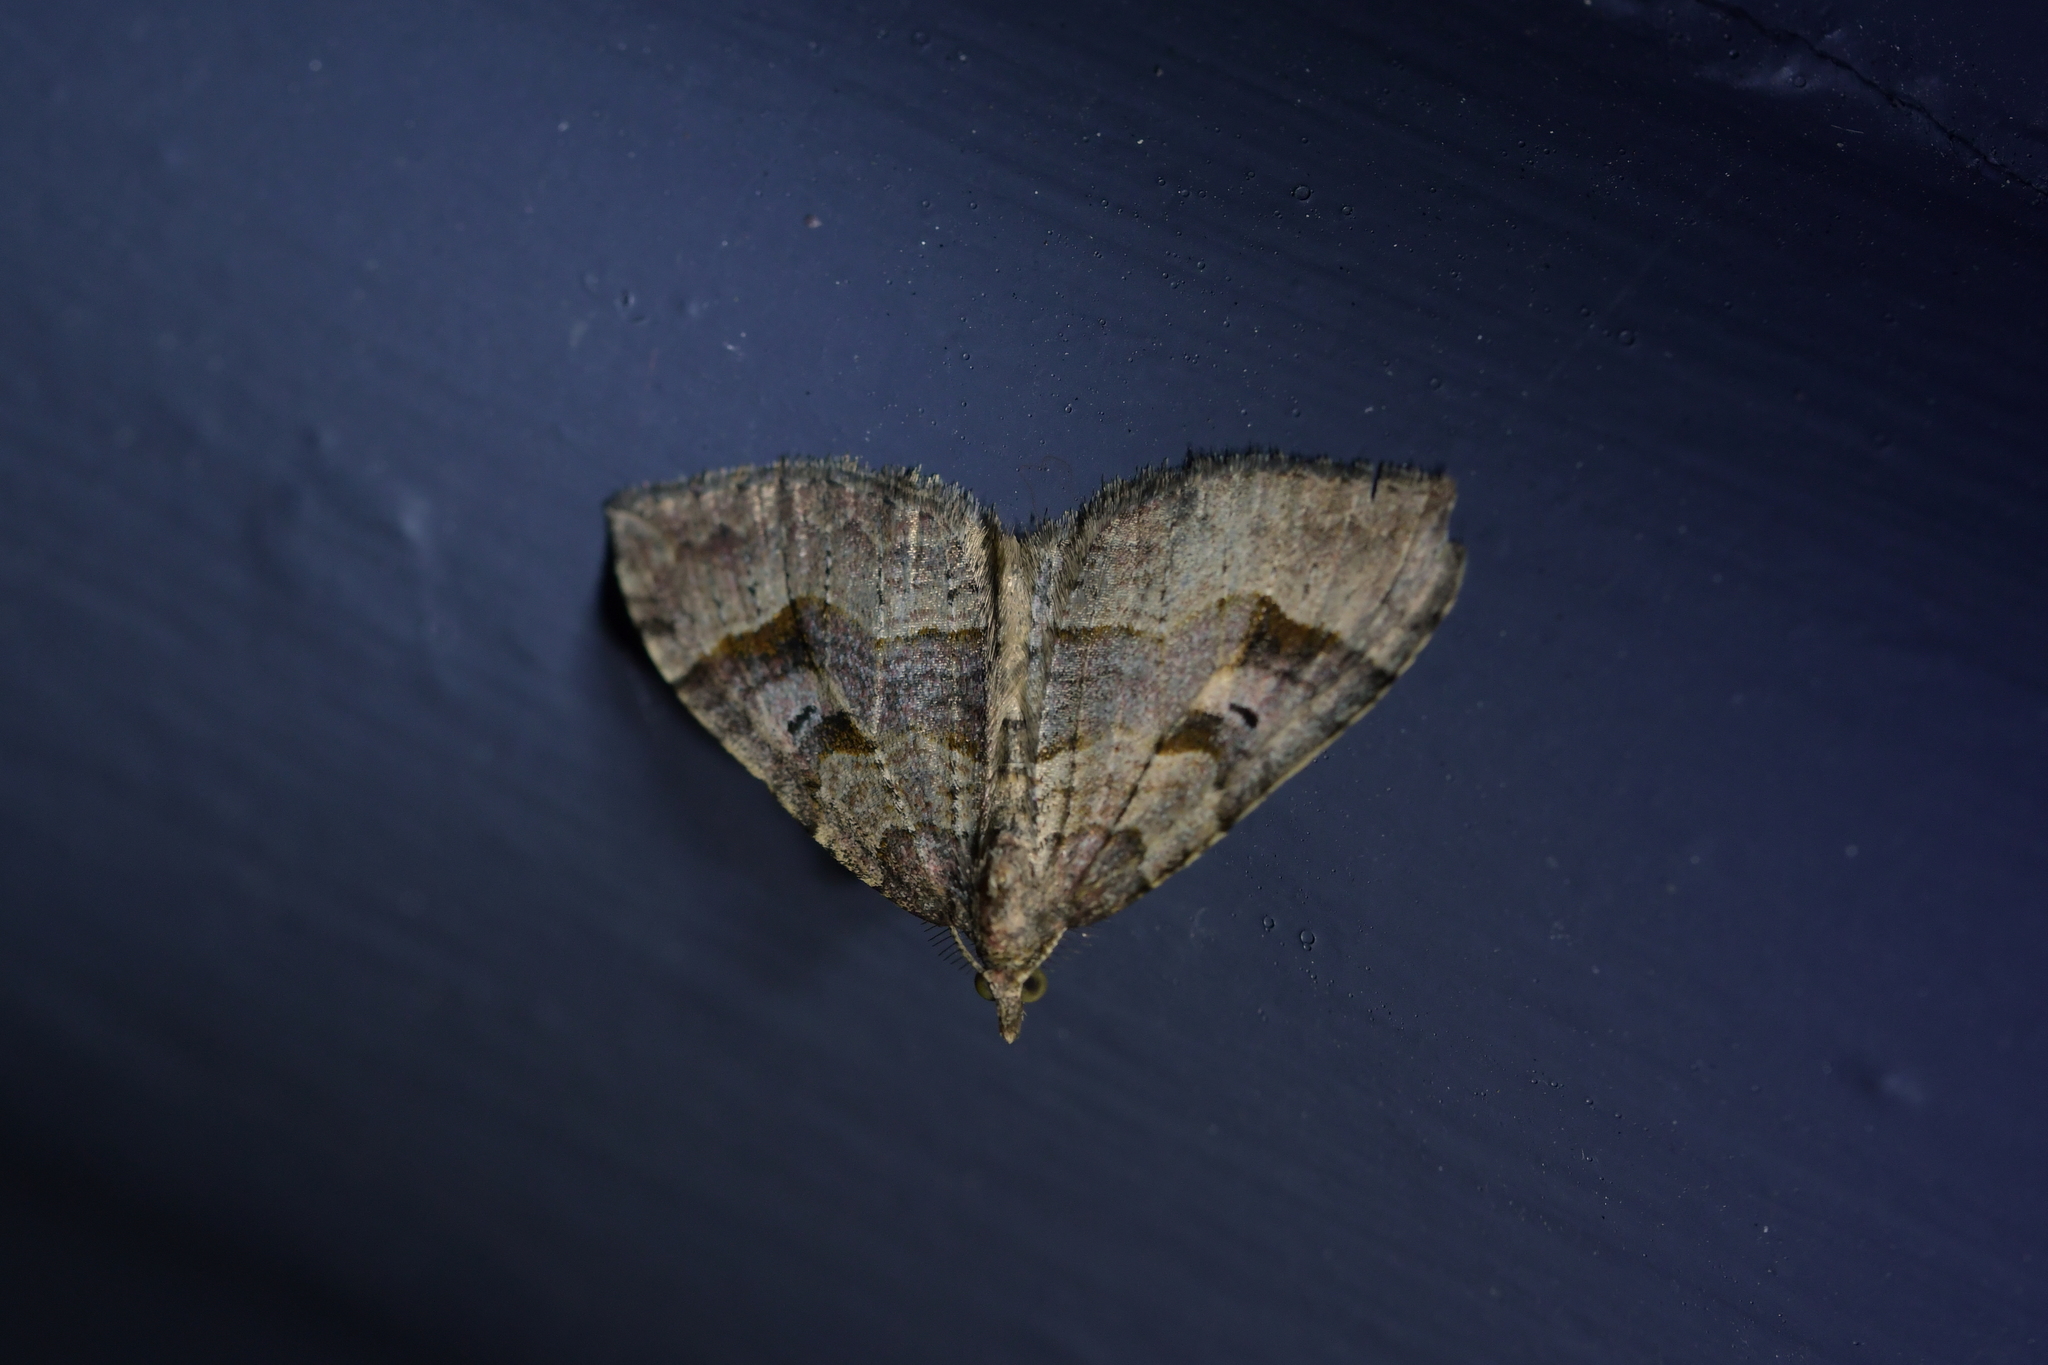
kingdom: Animalia
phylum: Arthropoda
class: Insecta
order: Lepidoptera
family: Geometridae
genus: Epyaxa
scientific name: Epyaxa rosearia
